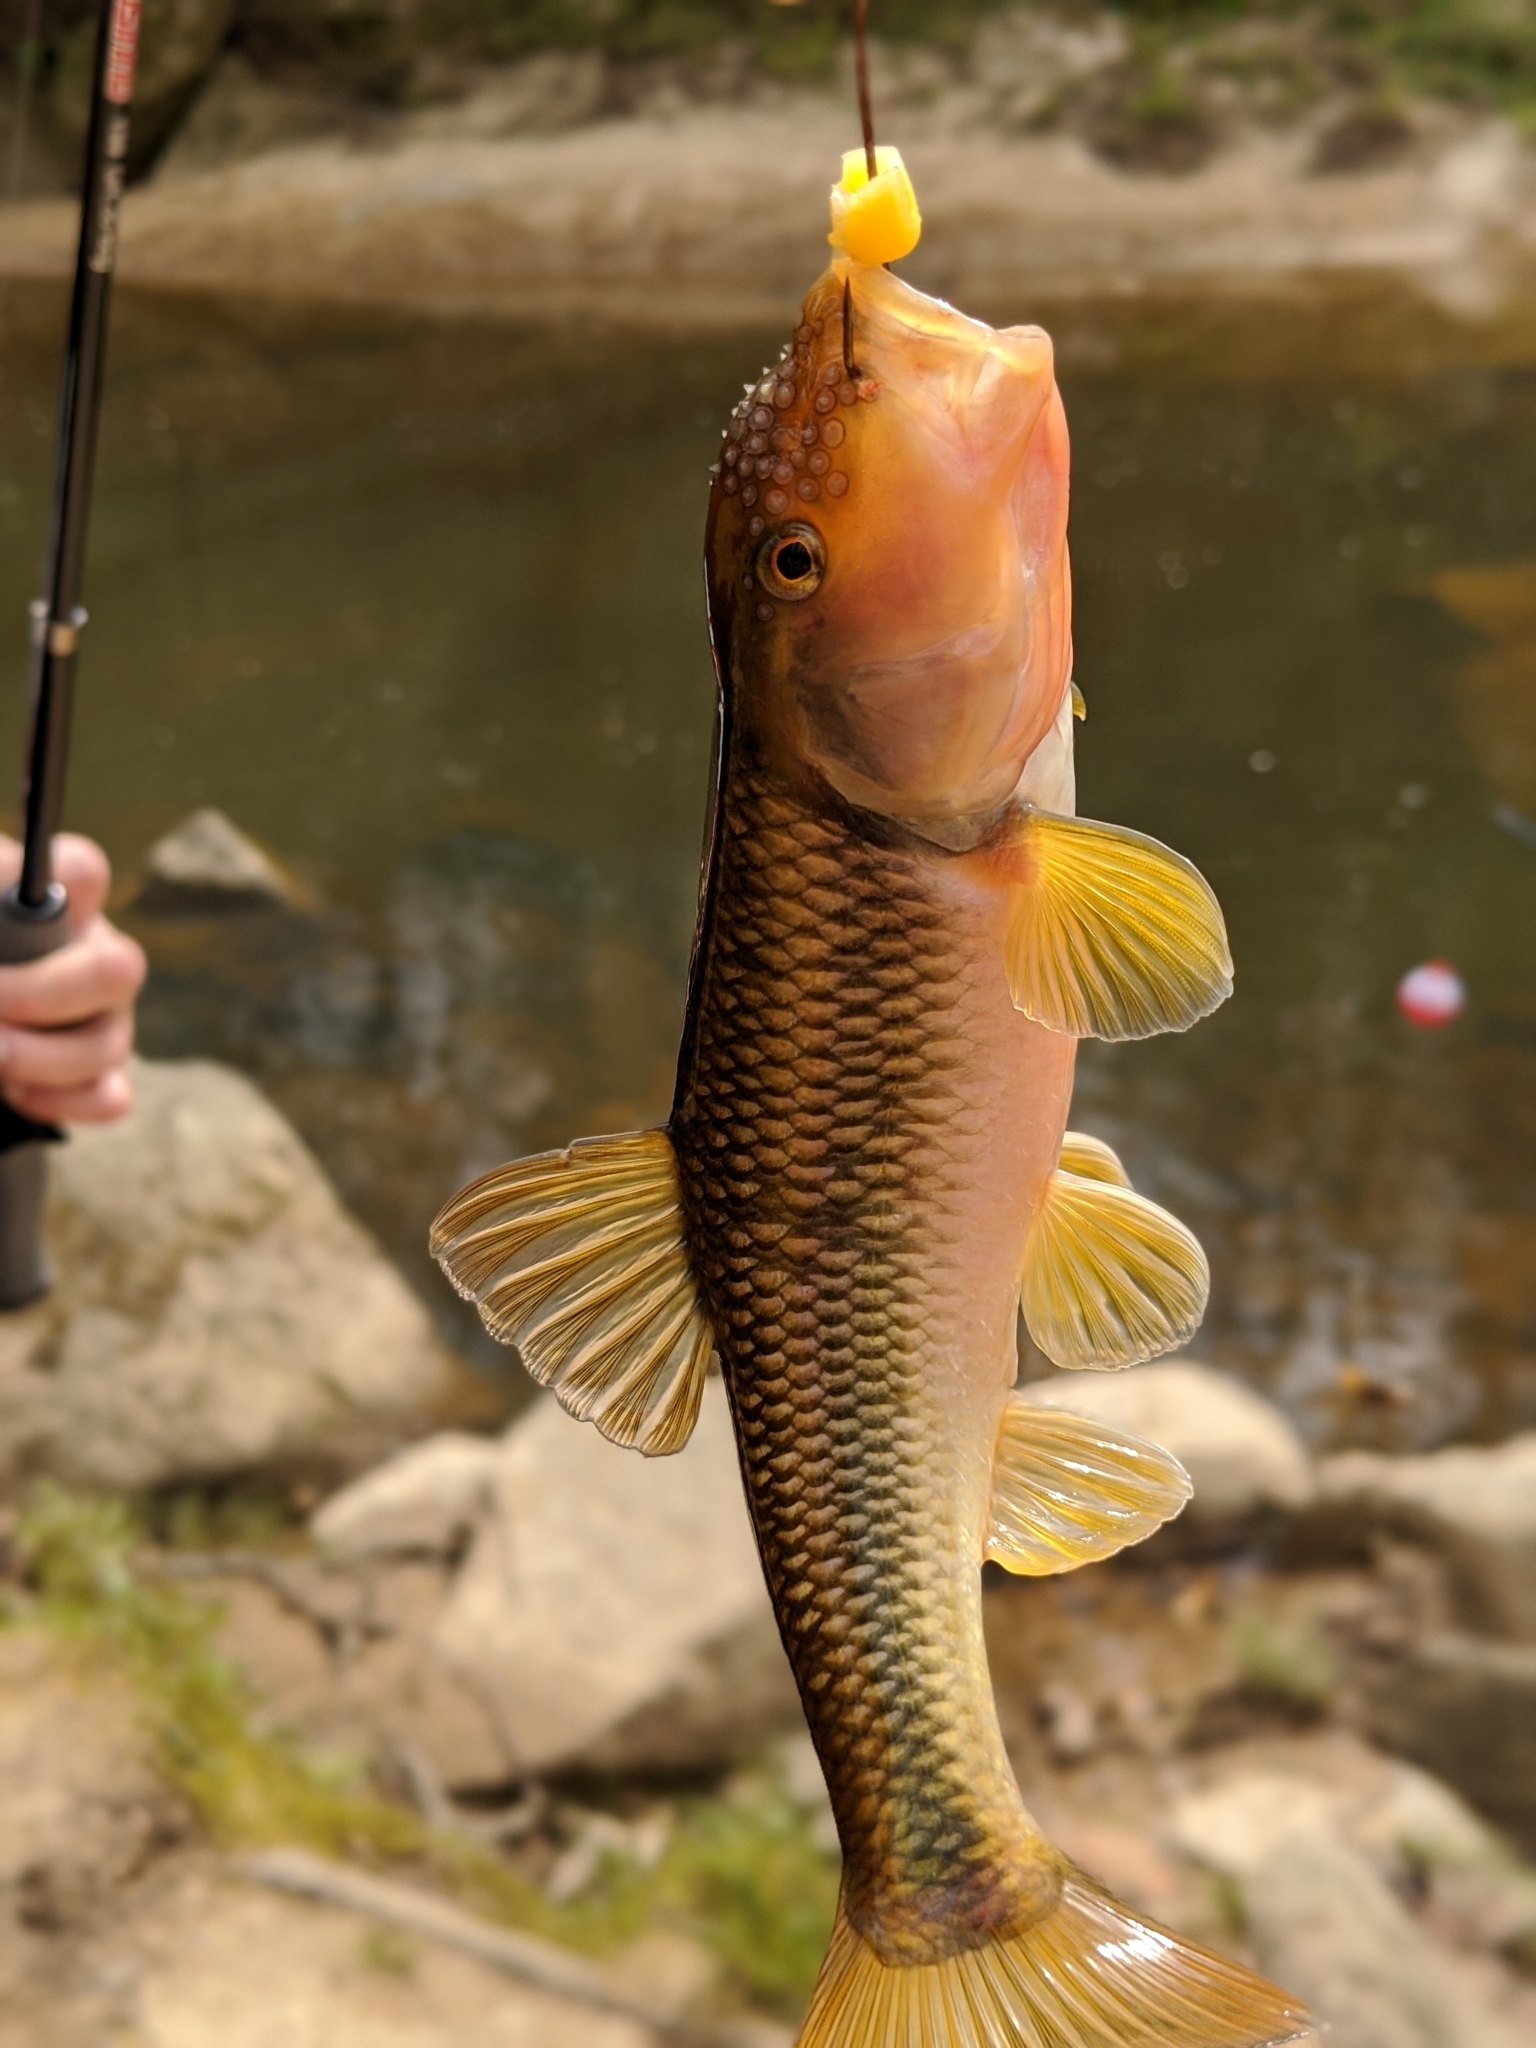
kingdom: Animalia
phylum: Chordata
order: Cypriniformes
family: Cyprinidae
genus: Nocomis
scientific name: Nocomis micropogon
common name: River chub
